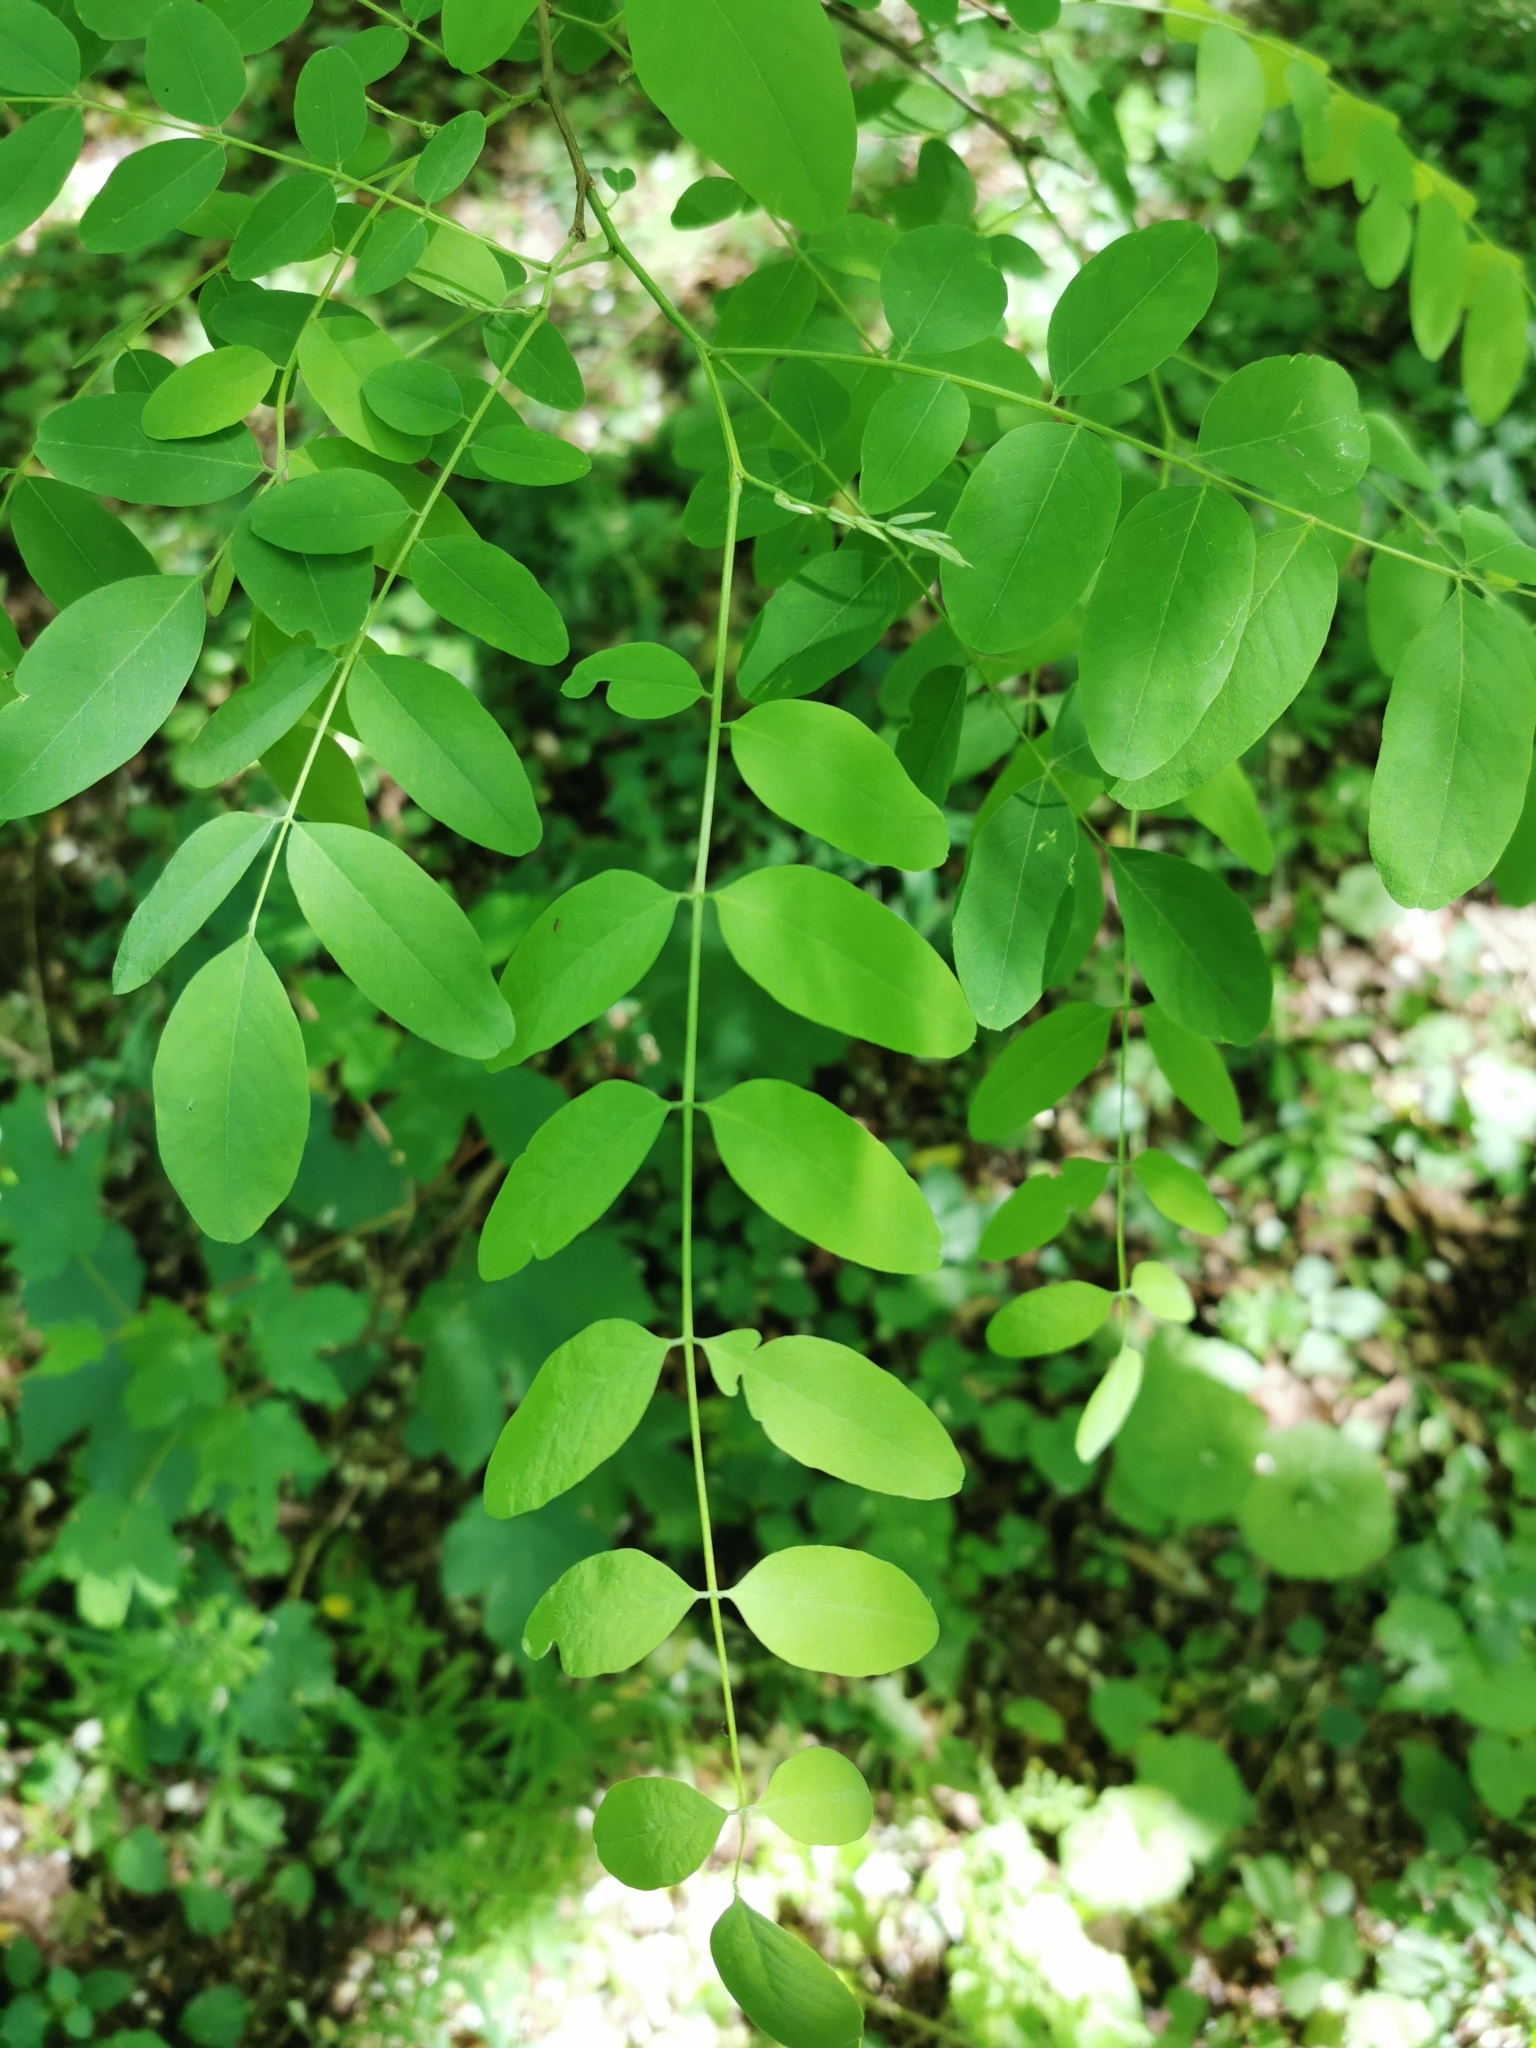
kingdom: Plantae
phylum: Tracheophyta
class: Magnoliopsida
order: Fabales
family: Fabaceae
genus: Robinia
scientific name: Robinia pseudoacacia
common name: Black locust
